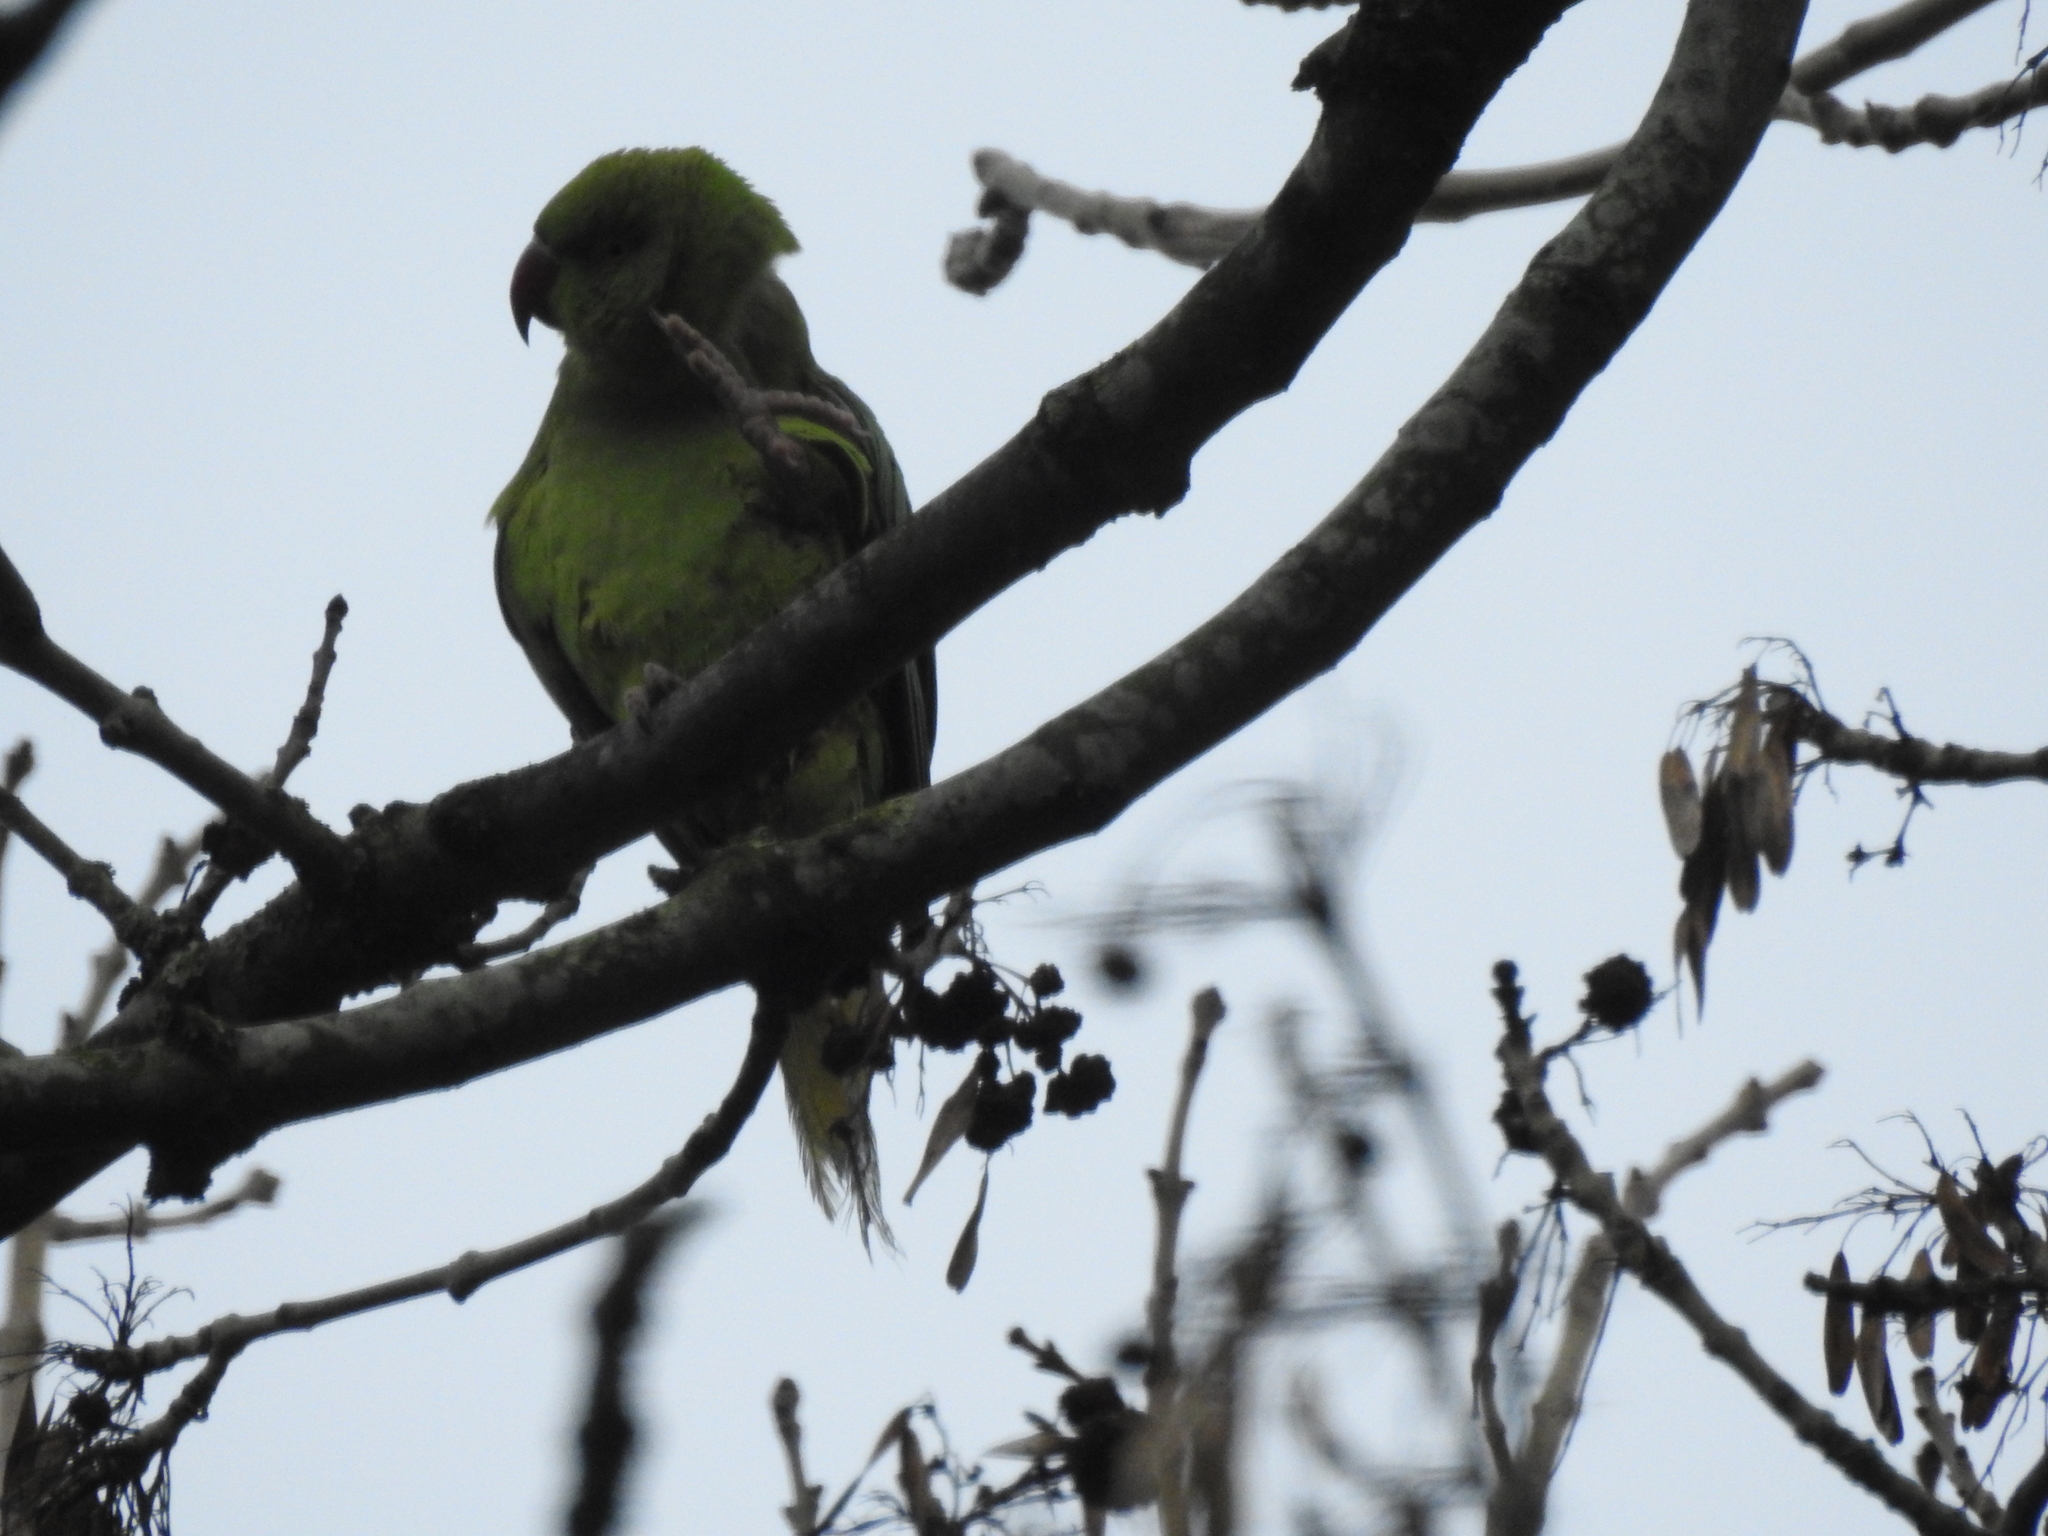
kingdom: Animalia
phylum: Chordata
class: Aves
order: Psittaciformes
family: Psittacidae
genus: Psittacula
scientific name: Psittacula krameri
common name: Rose-ringed parakeet
